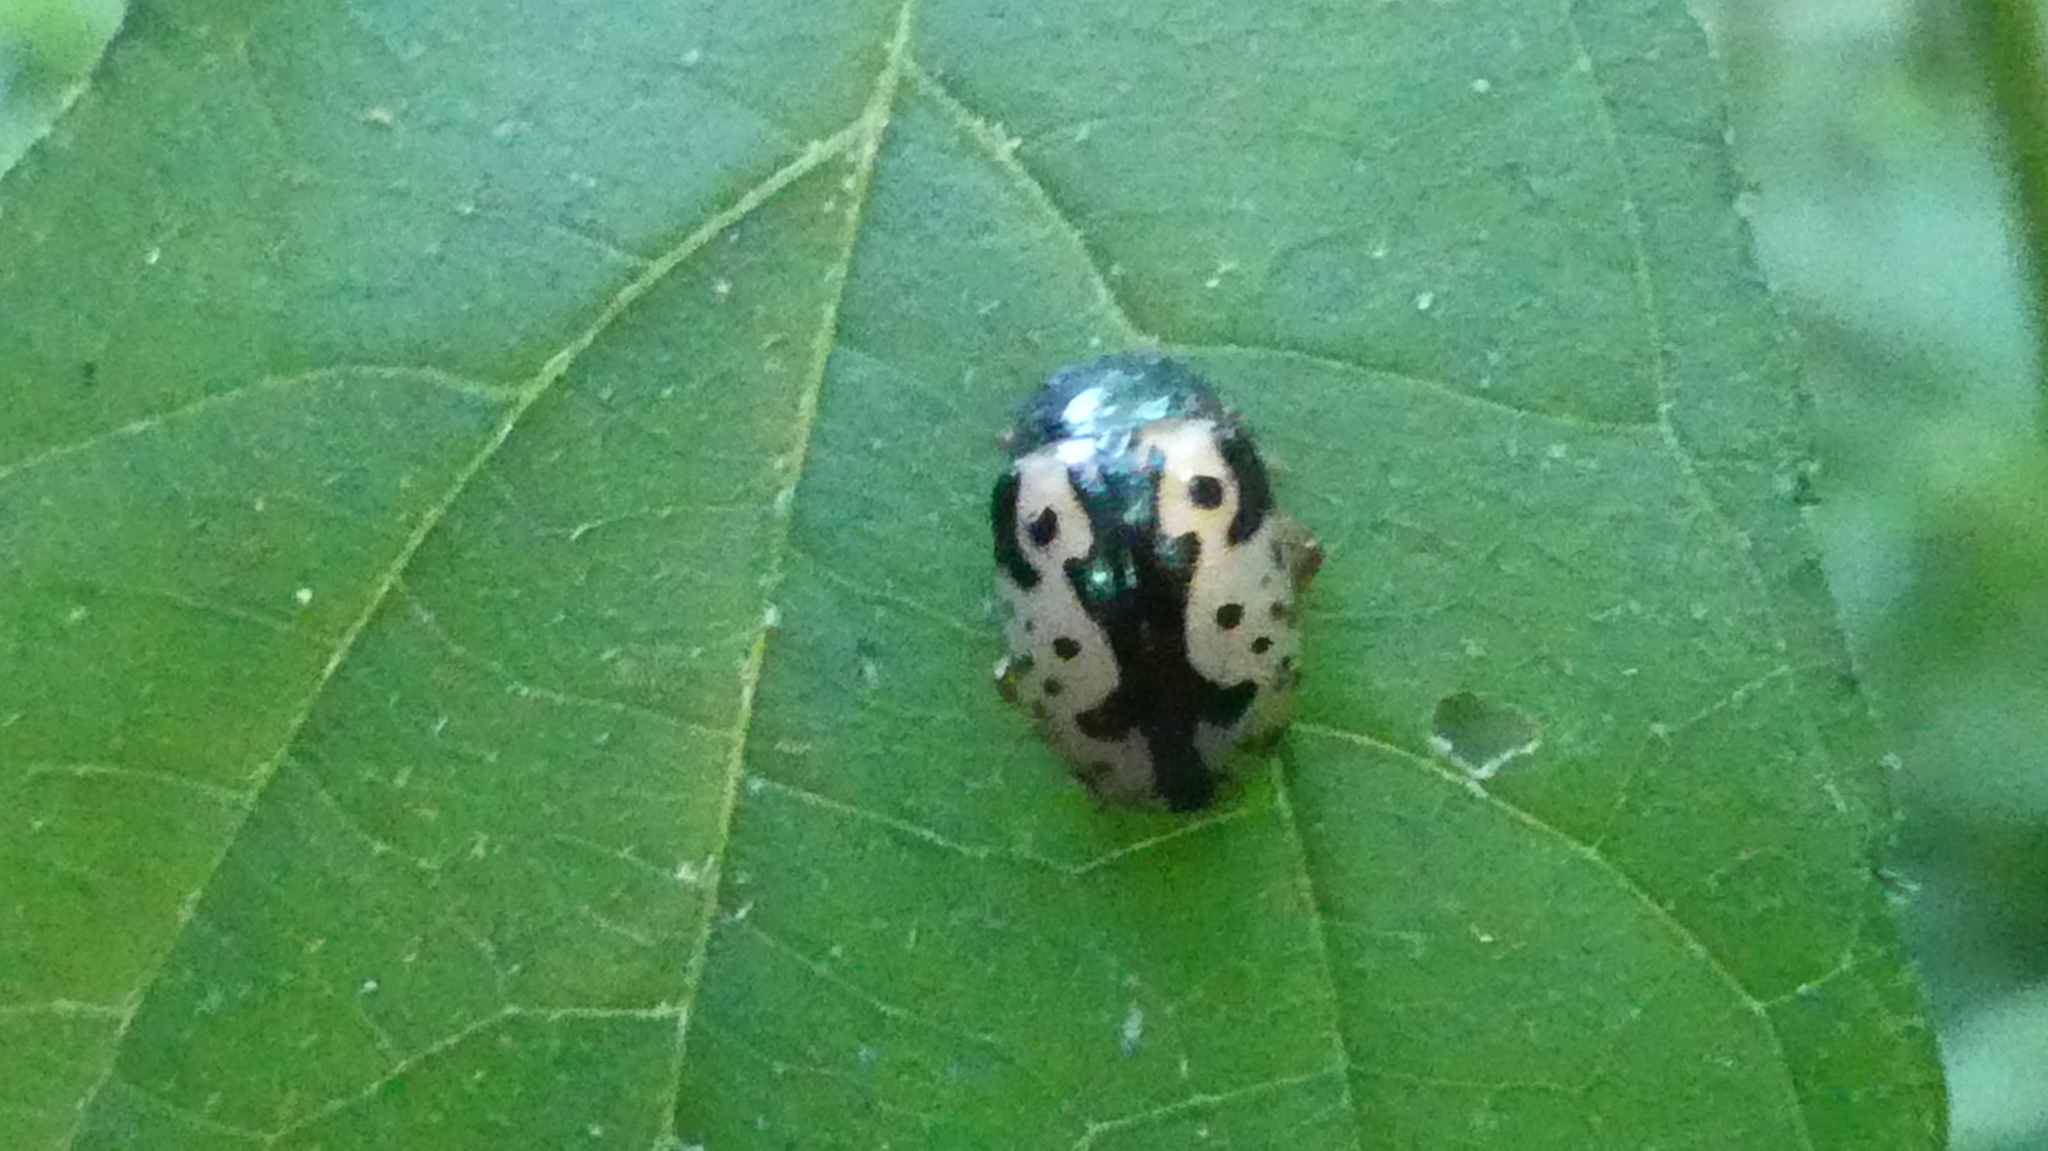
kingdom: Animalia
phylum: Arthropoda
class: Insecta
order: Coleoptera
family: Chrysomelidae
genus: Calligrapha
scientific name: Calligrapha scalaris
